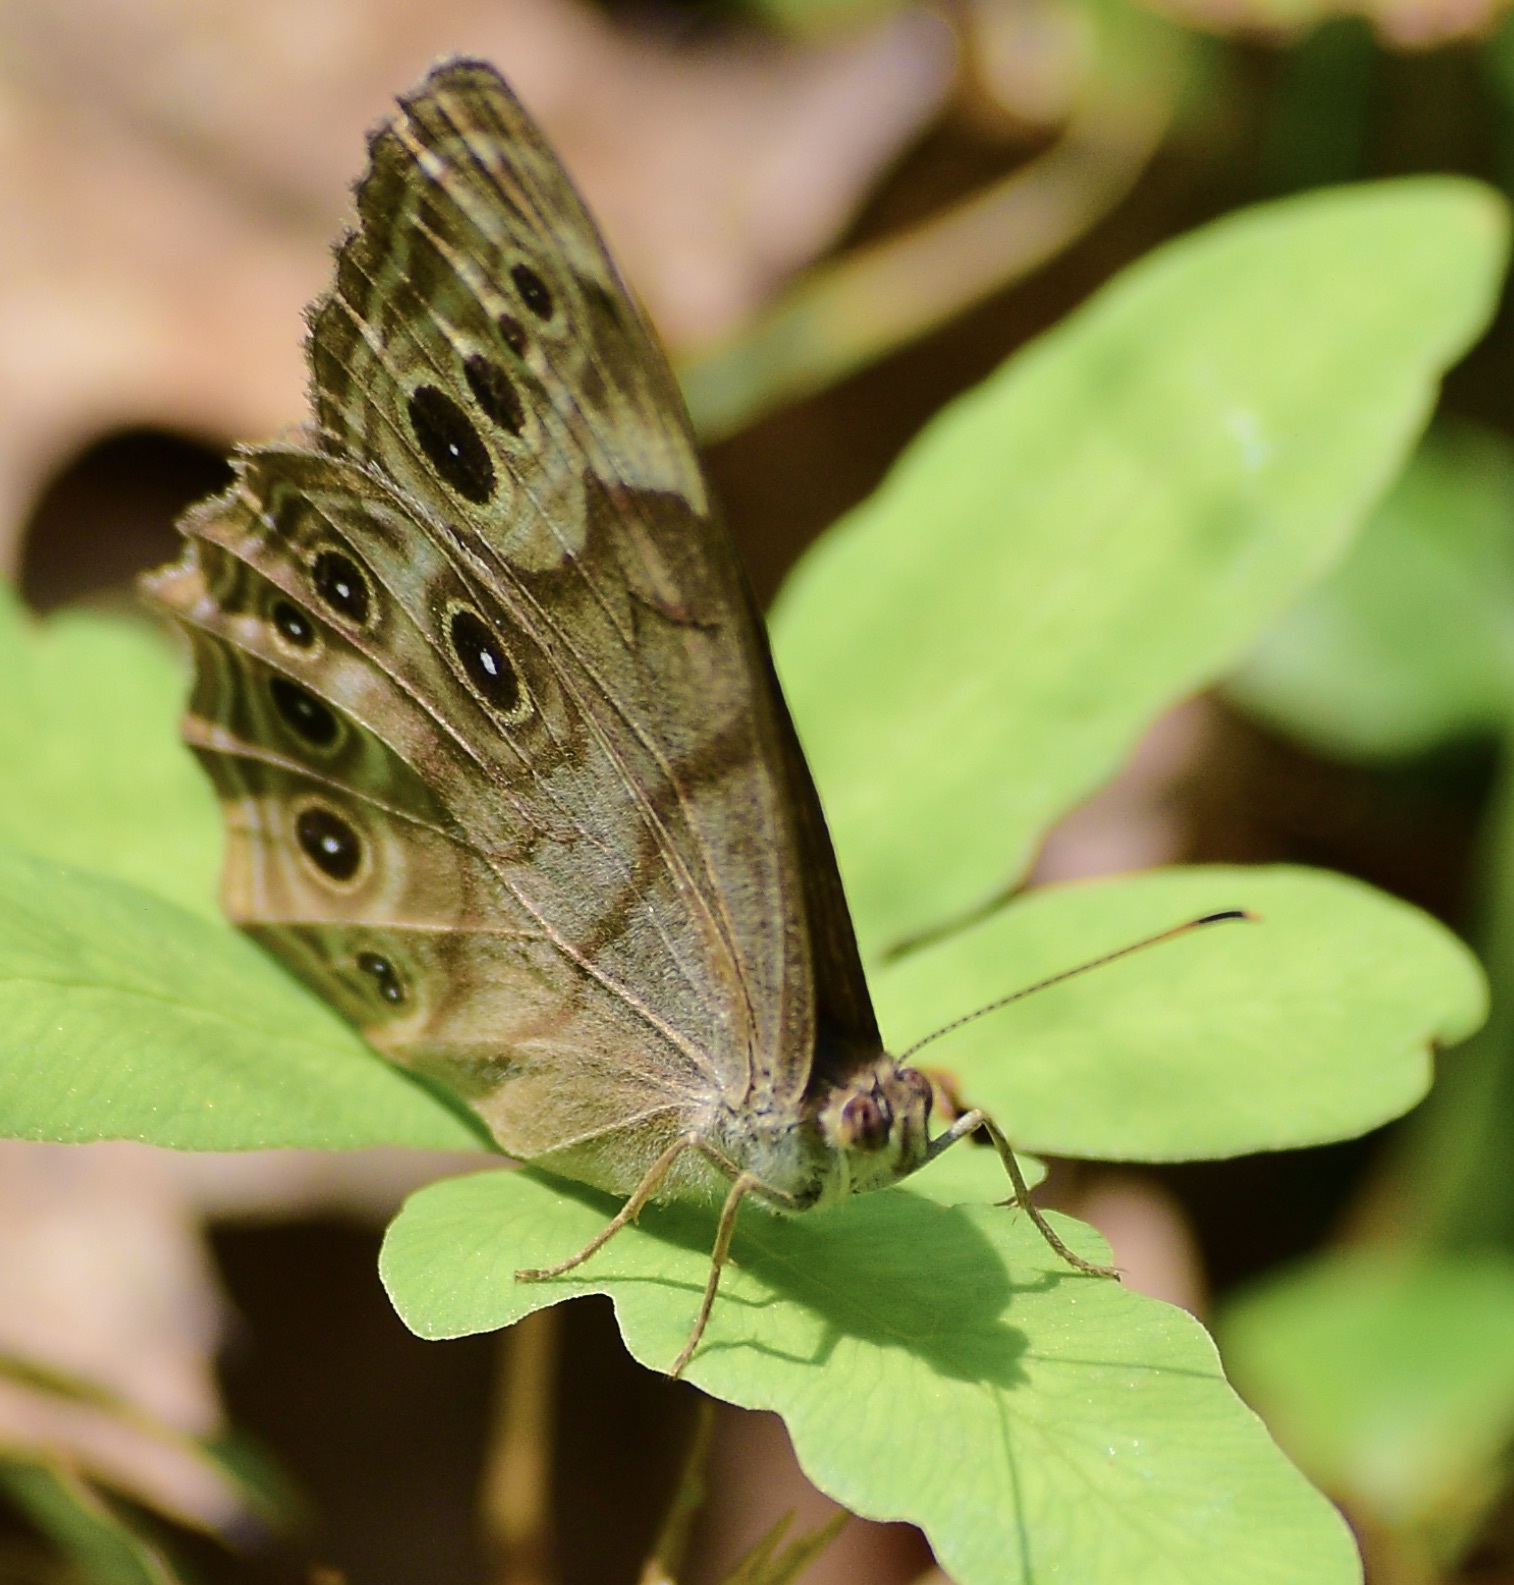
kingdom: Animalia
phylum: Arthropoda
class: Insecta
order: Lepidoptera
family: Nymphalidae
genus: Lethe
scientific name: Lethe anthedon
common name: Northern pearly-eye
